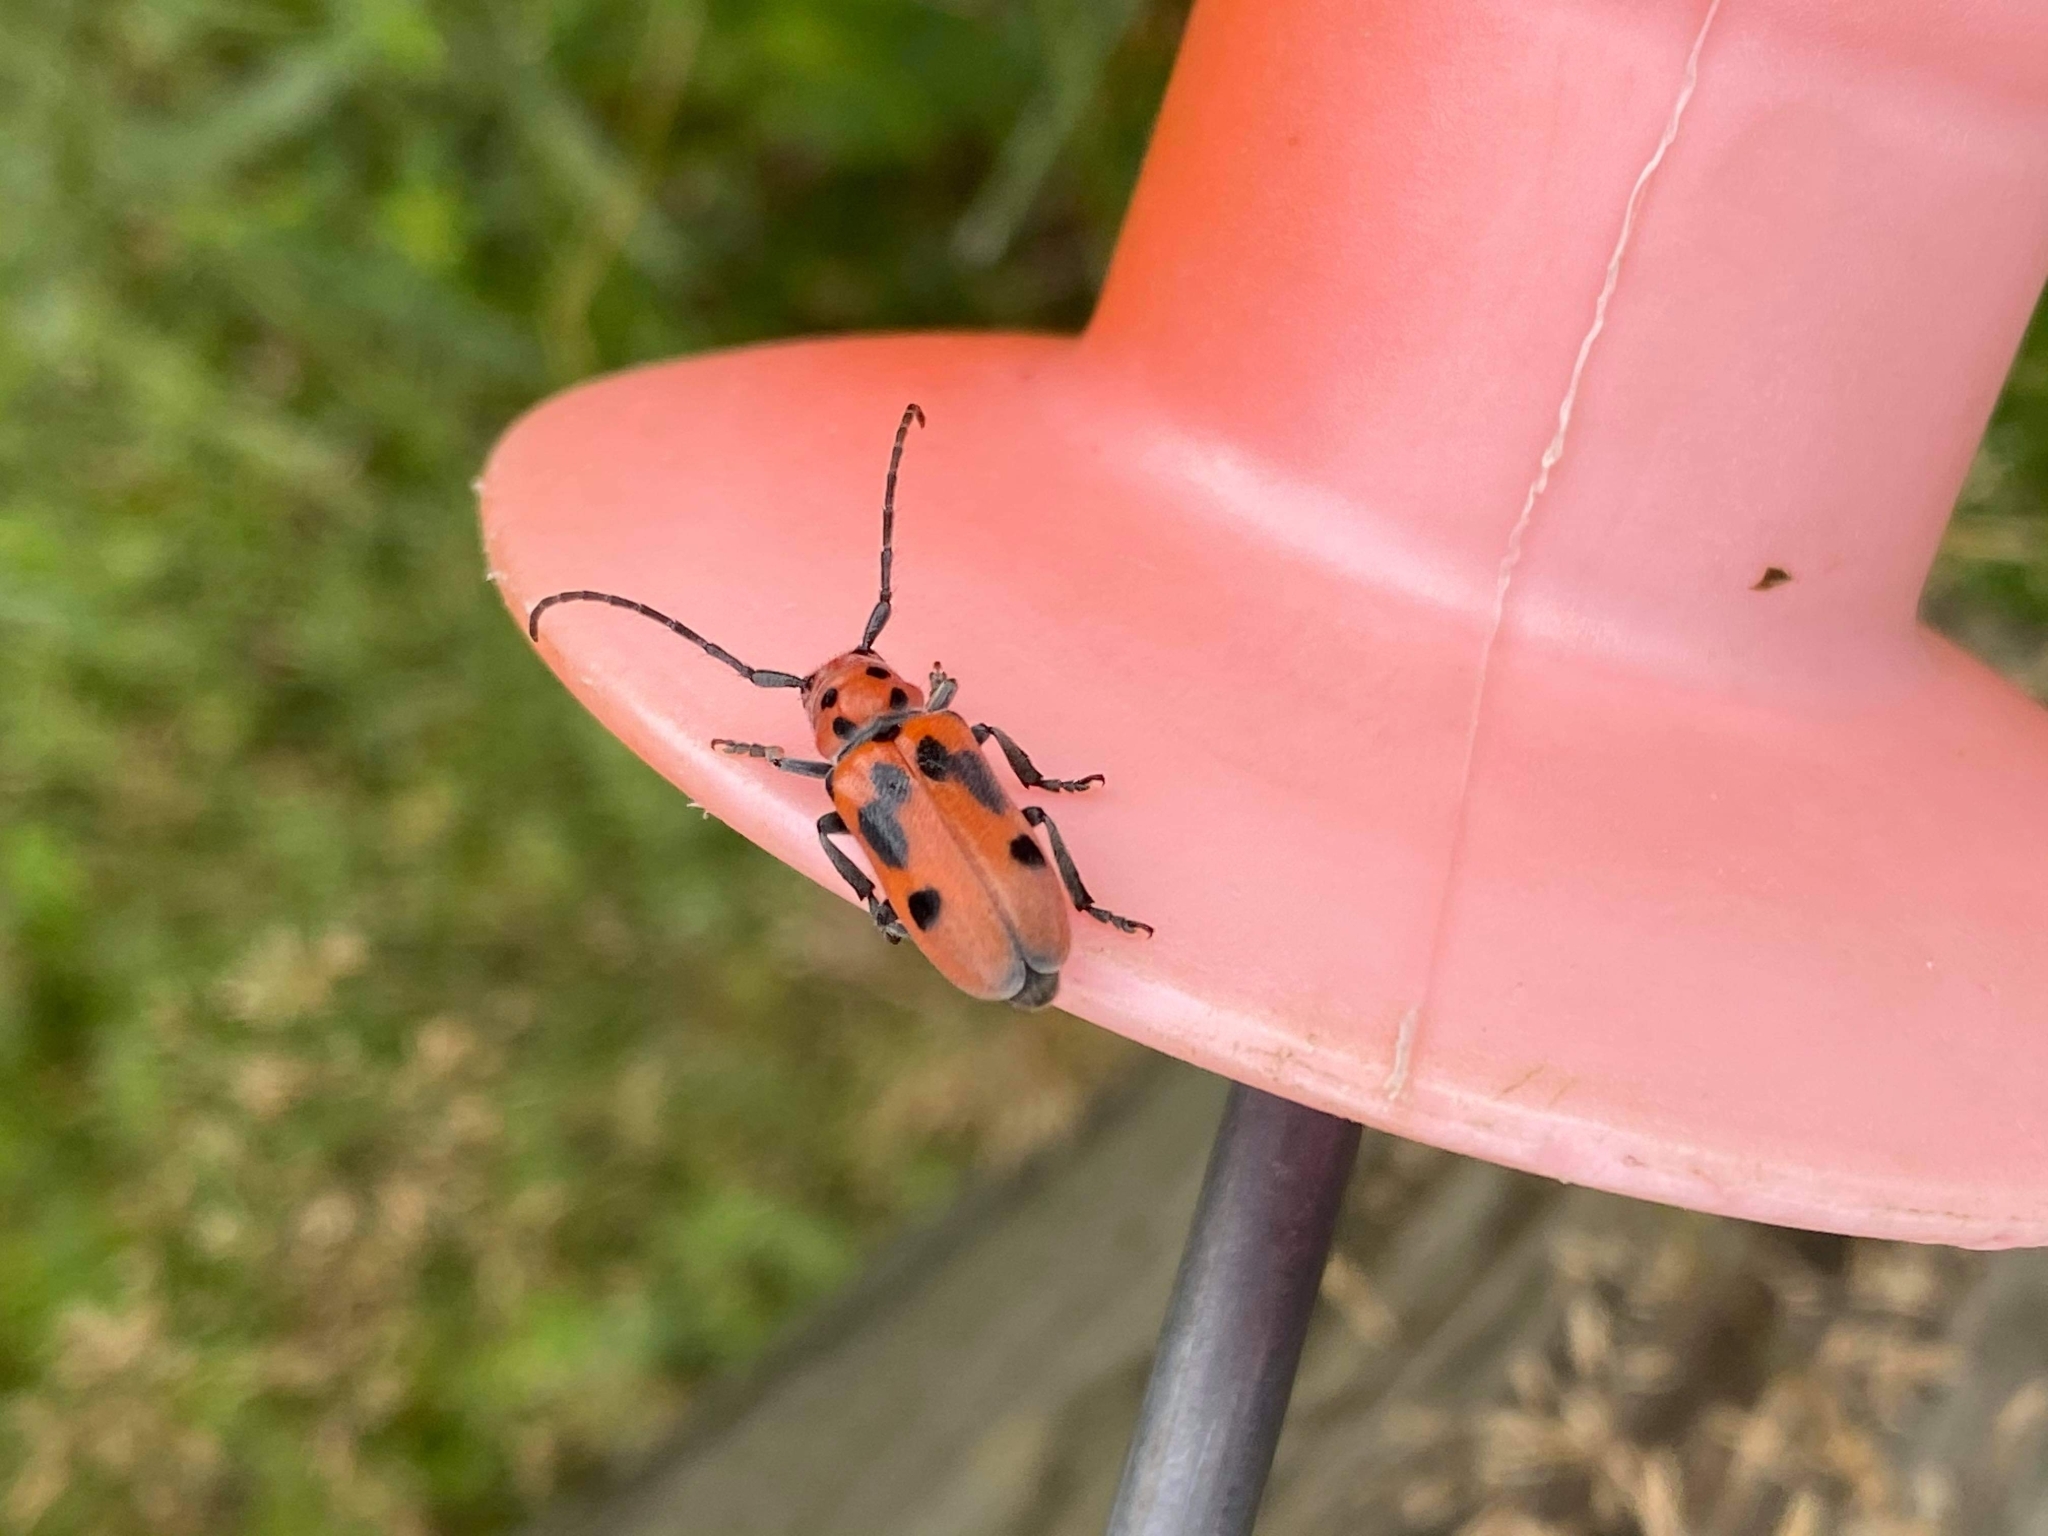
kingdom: Animalia
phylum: Arthropoda
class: Insecta
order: Coleoptera
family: Cerambycidae
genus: Tetraopes
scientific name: Tetraopes tetrophthalmus
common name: Red milkweed beetle
